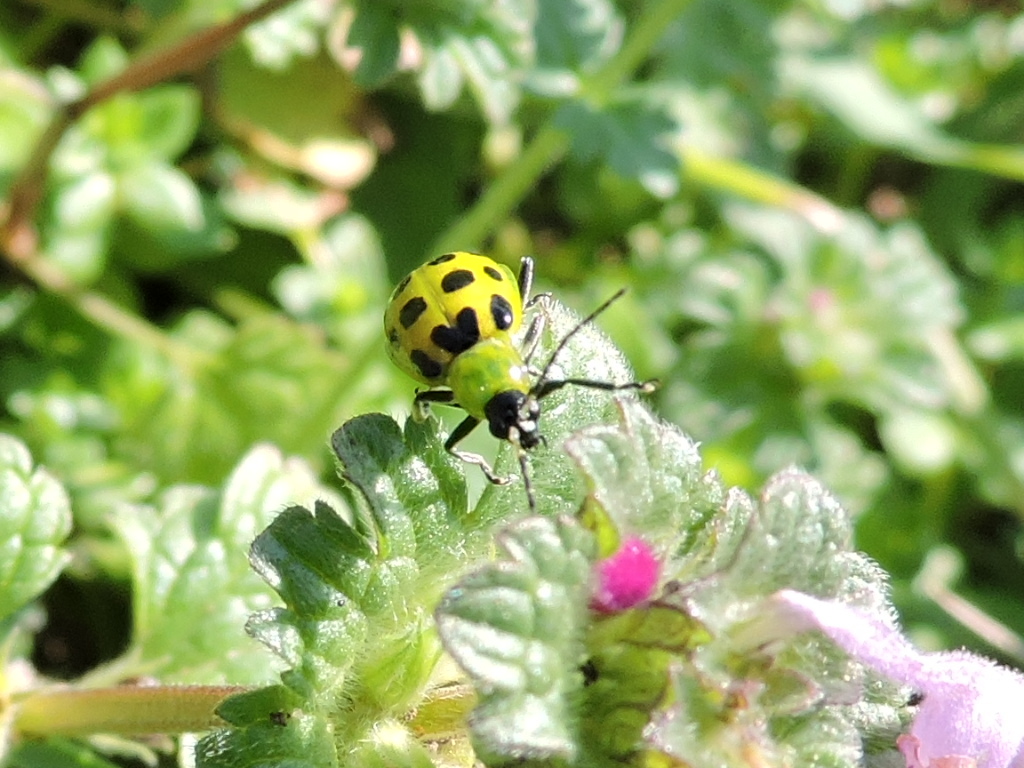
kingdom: Animalia
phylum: Arthropoda
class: Insecta
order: Coleoptera
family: Chrysomelidae
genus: Diabrotica
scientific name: Diabrotica undecimpunctata
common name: Spotted cucumber beetle
